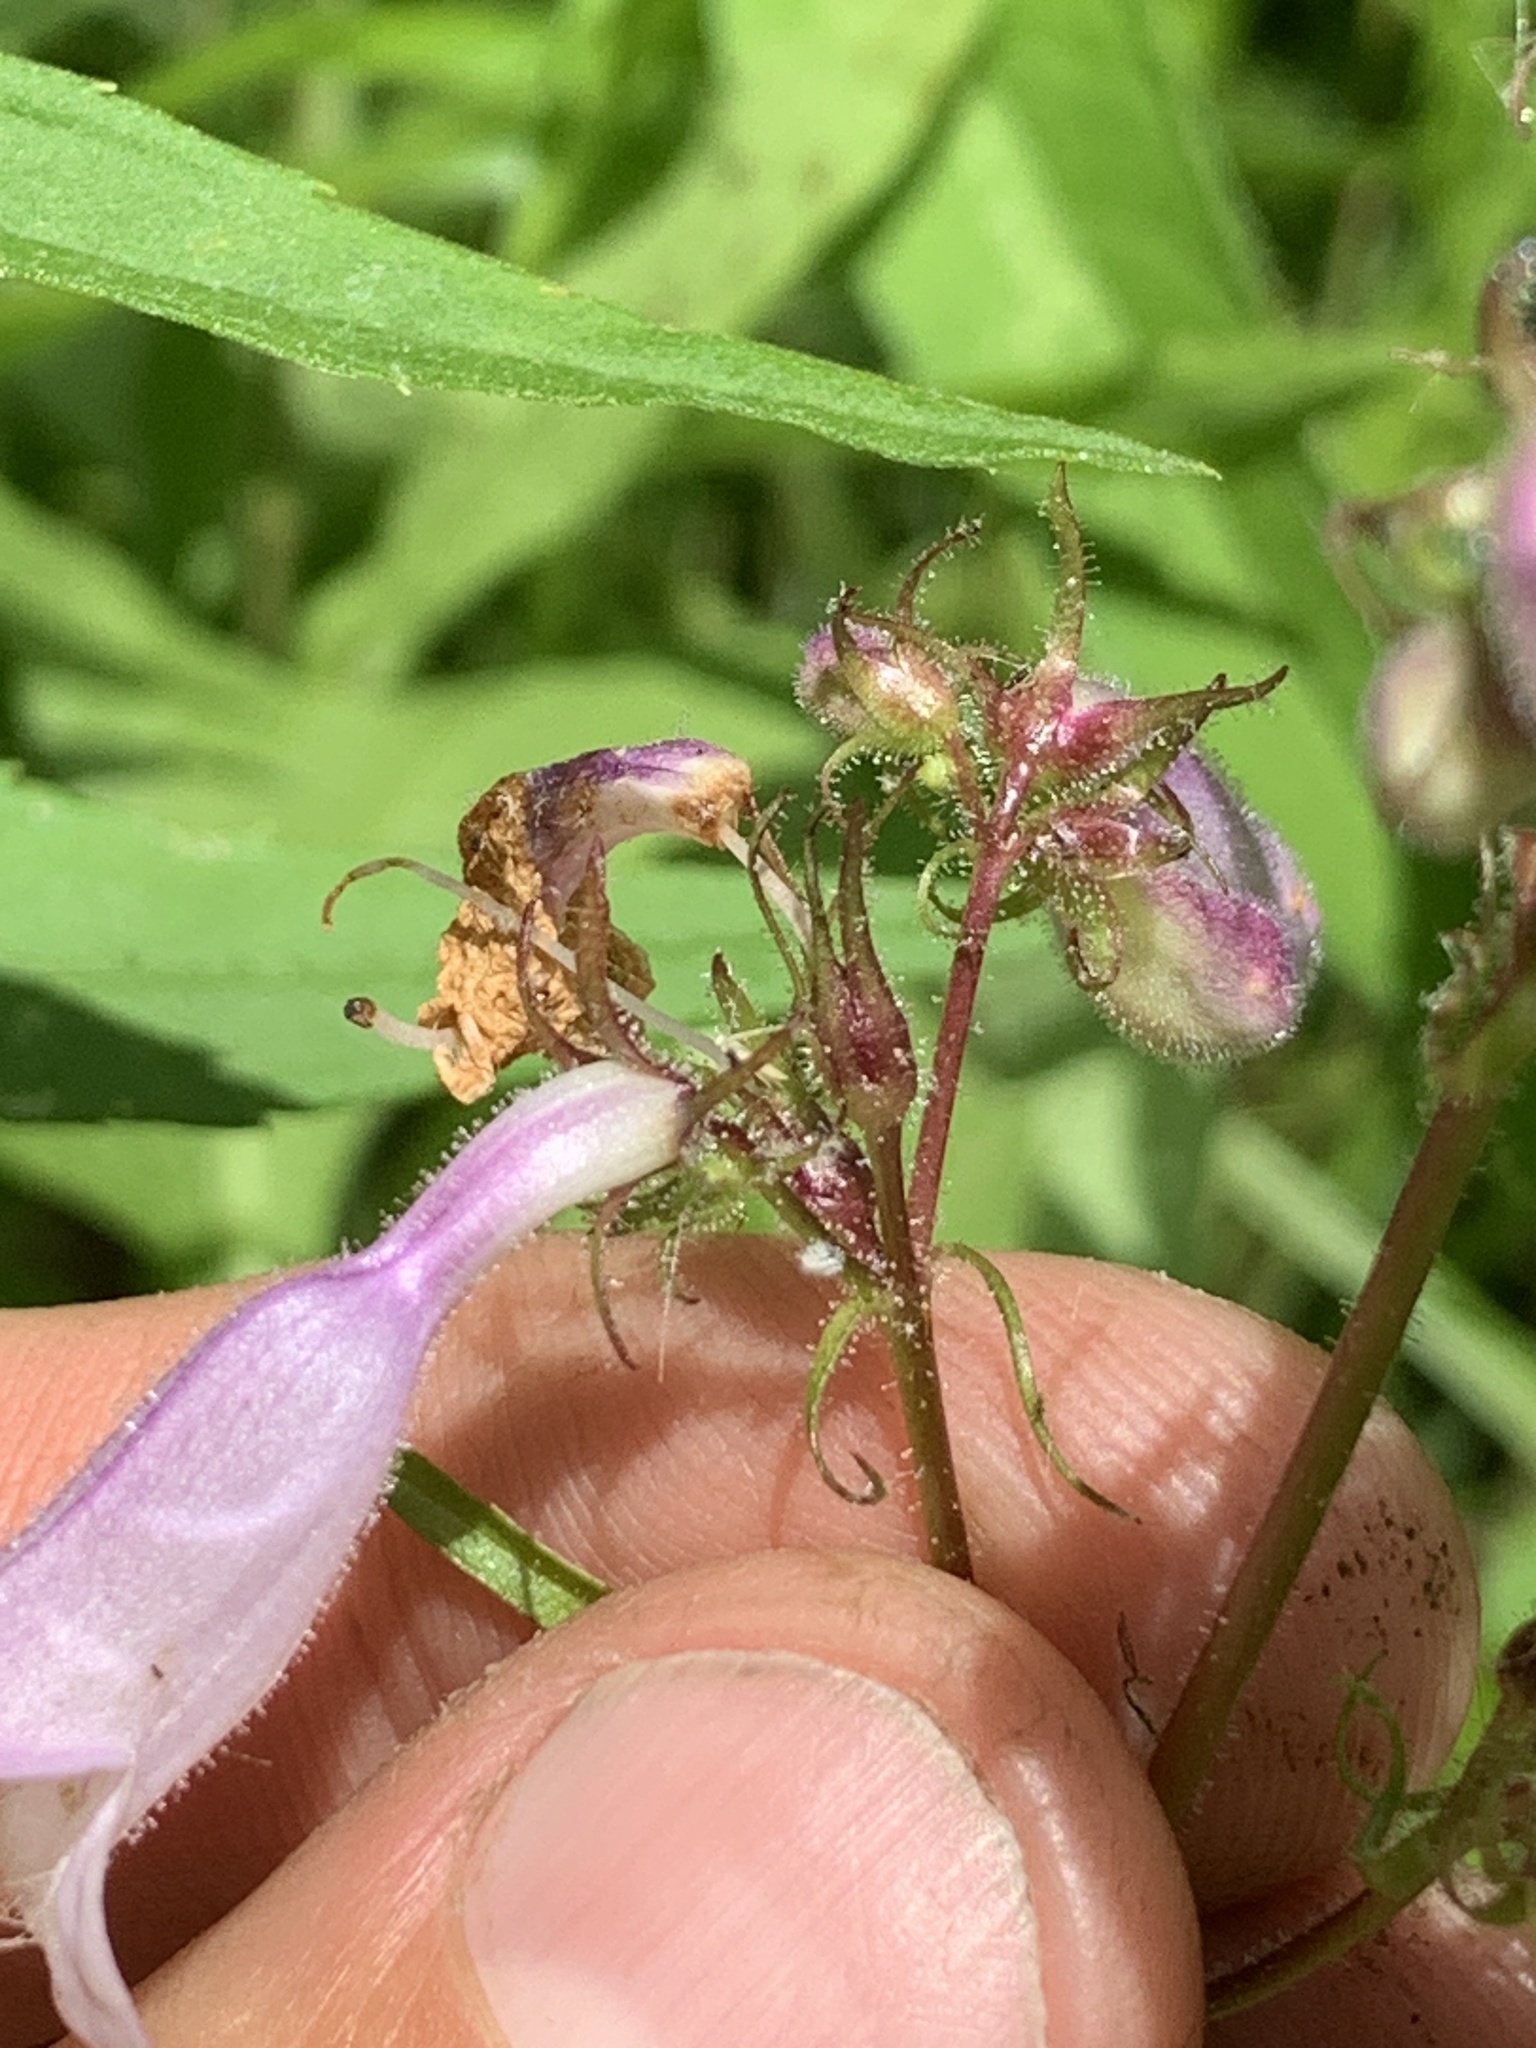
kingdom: Plantae
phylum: Tracheophyta
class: Magnoliopsida
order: Lamiales
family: Plantaginaceae
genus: Penstemon
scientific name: Penstemon calycosus
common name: Long-sepal beardtongue
